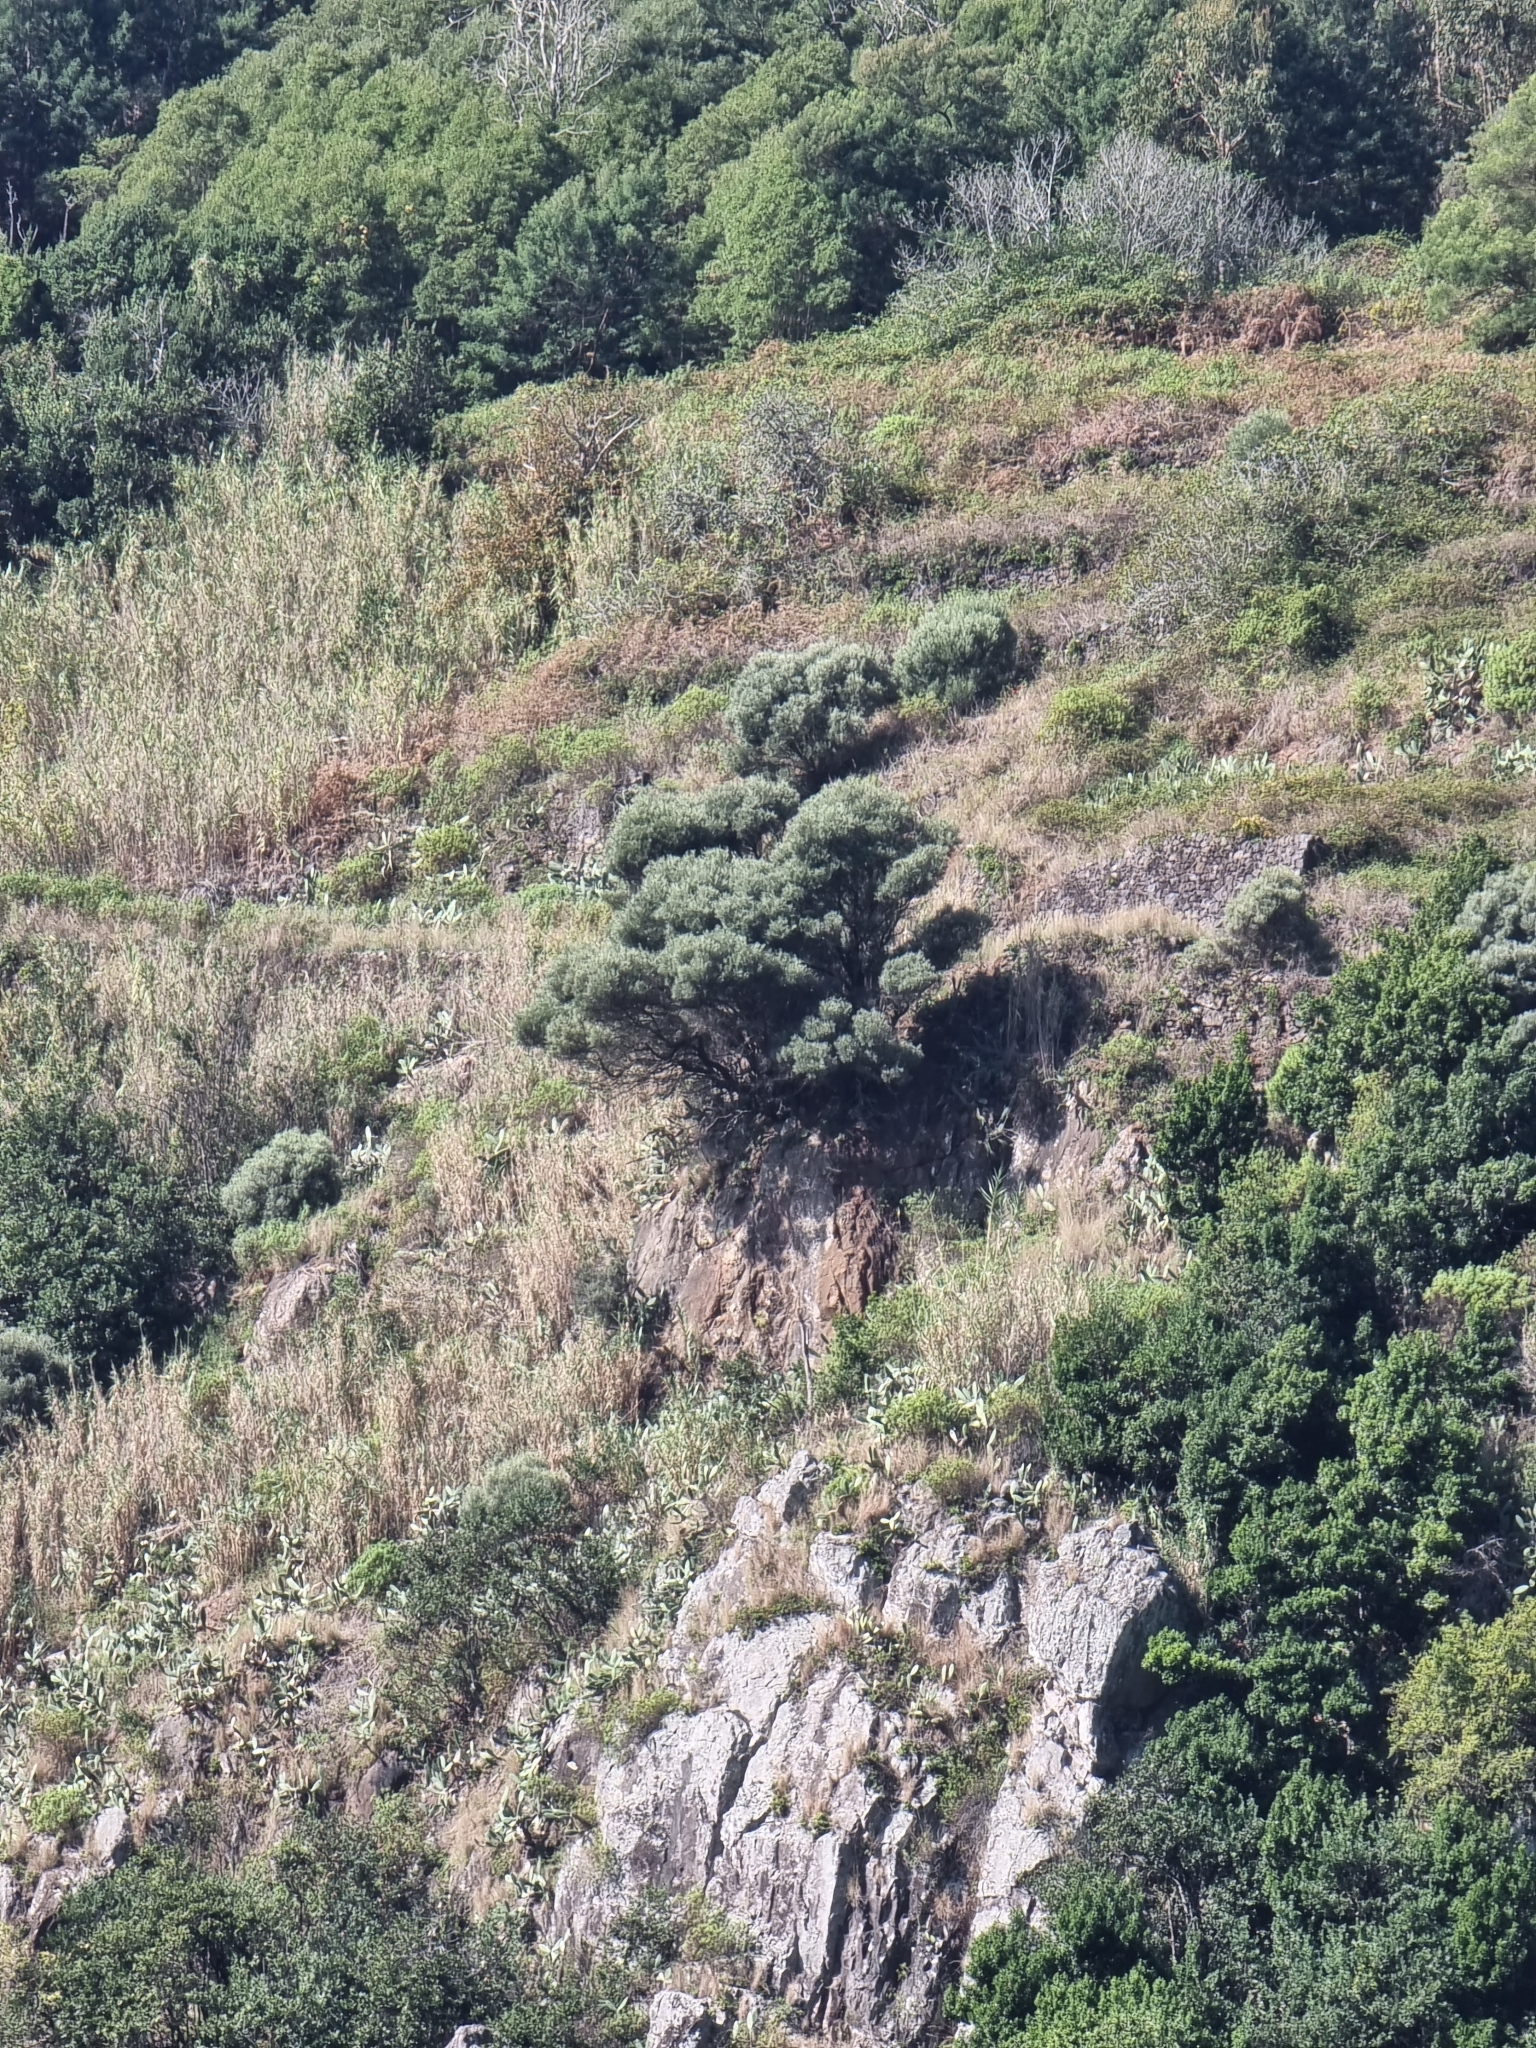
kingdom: Plantae
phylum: Tracheophyta
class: Magnoliopsida
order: Lamiales
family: Oleaceae
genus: Olea
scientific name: Olea europaea
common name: Olive
